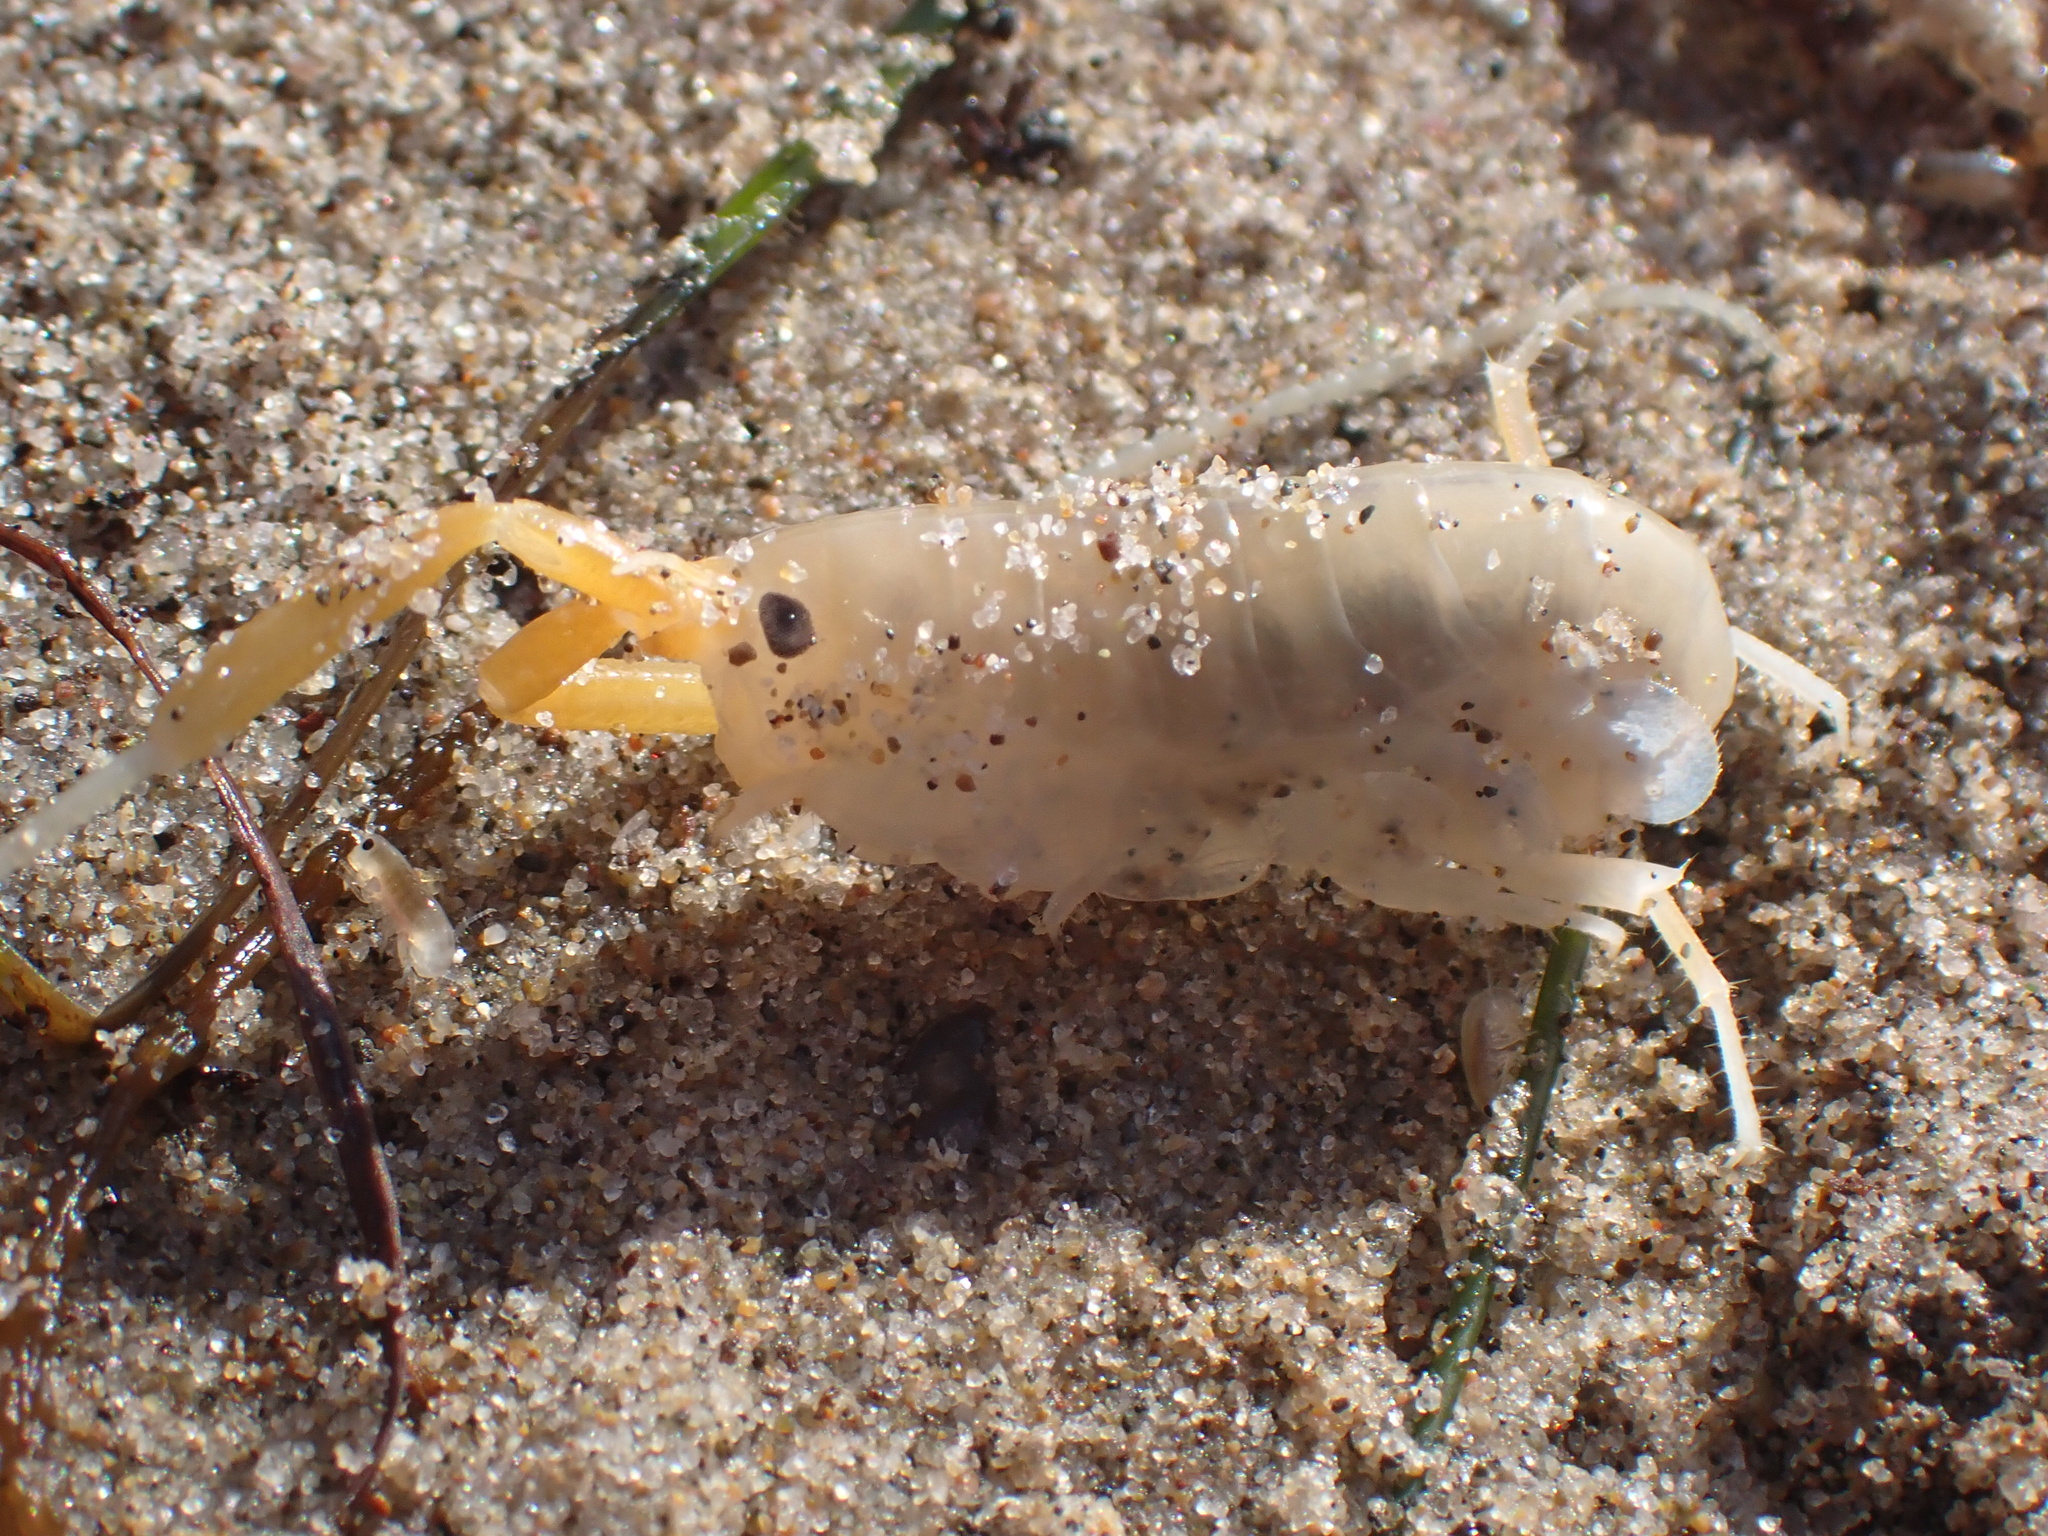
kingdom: Animalia
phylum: Arthropoda
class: Malacostraca
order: Amphipoda
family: Talitridae
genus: Megalorchestia
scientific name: Megalorchestia californiana
